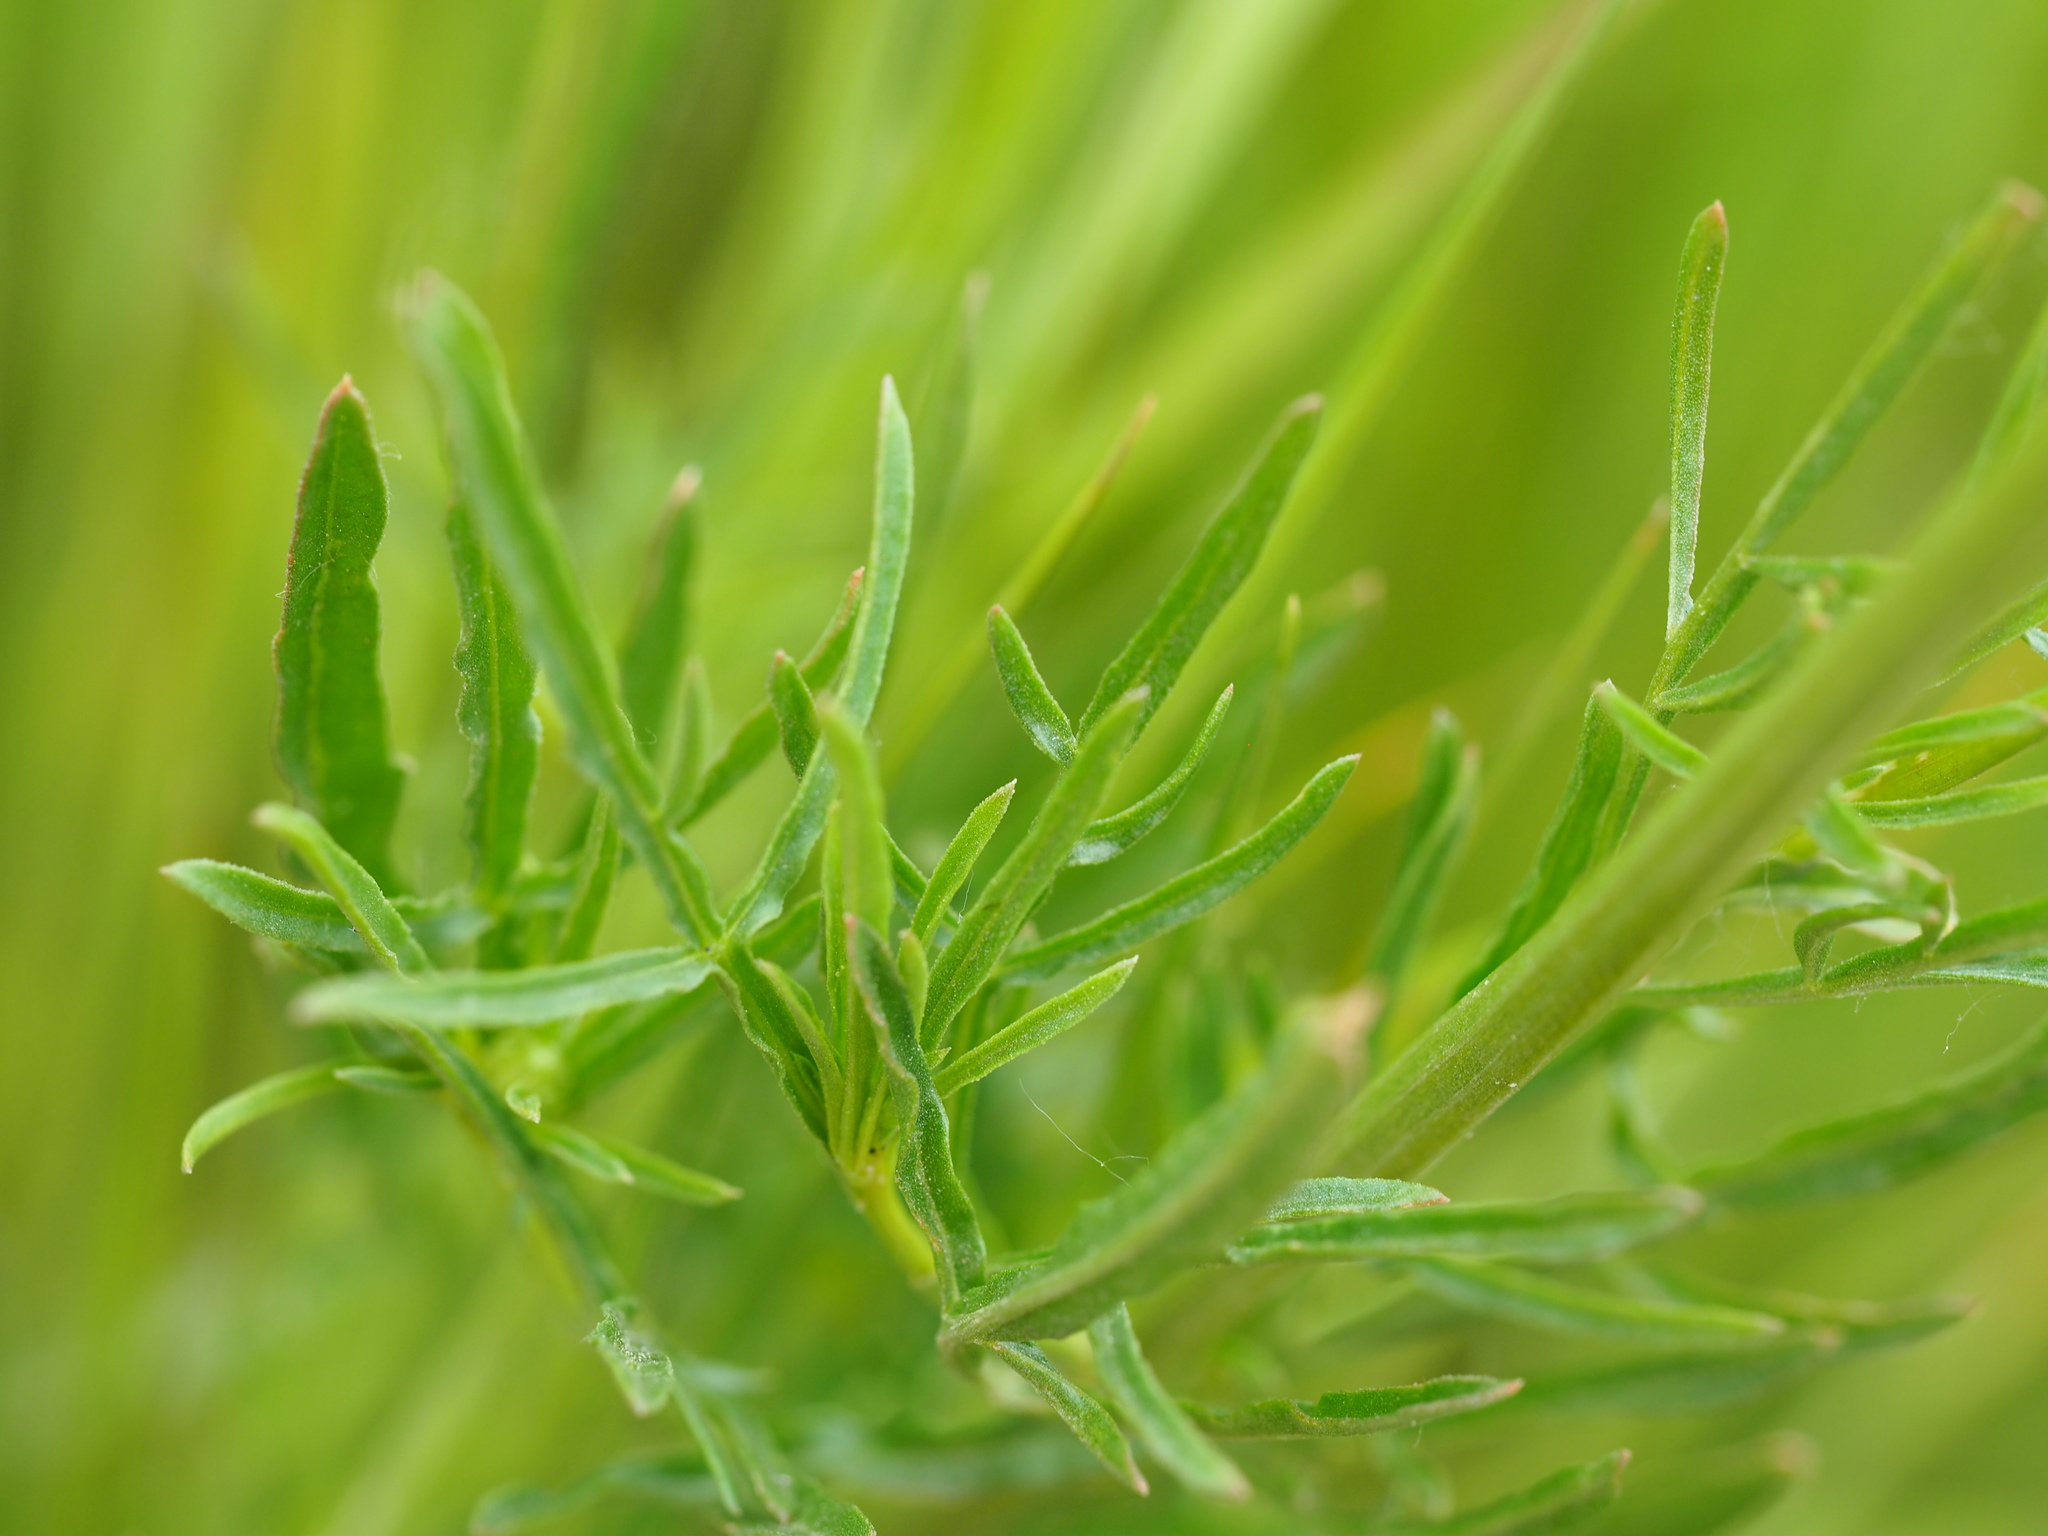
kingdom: Plantae
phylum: Tracheophyta
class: Magnoliopsida
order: Brassicales
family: Resedaceae
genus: Reseda
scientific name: Reseda lutea
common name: Wild mignonette
